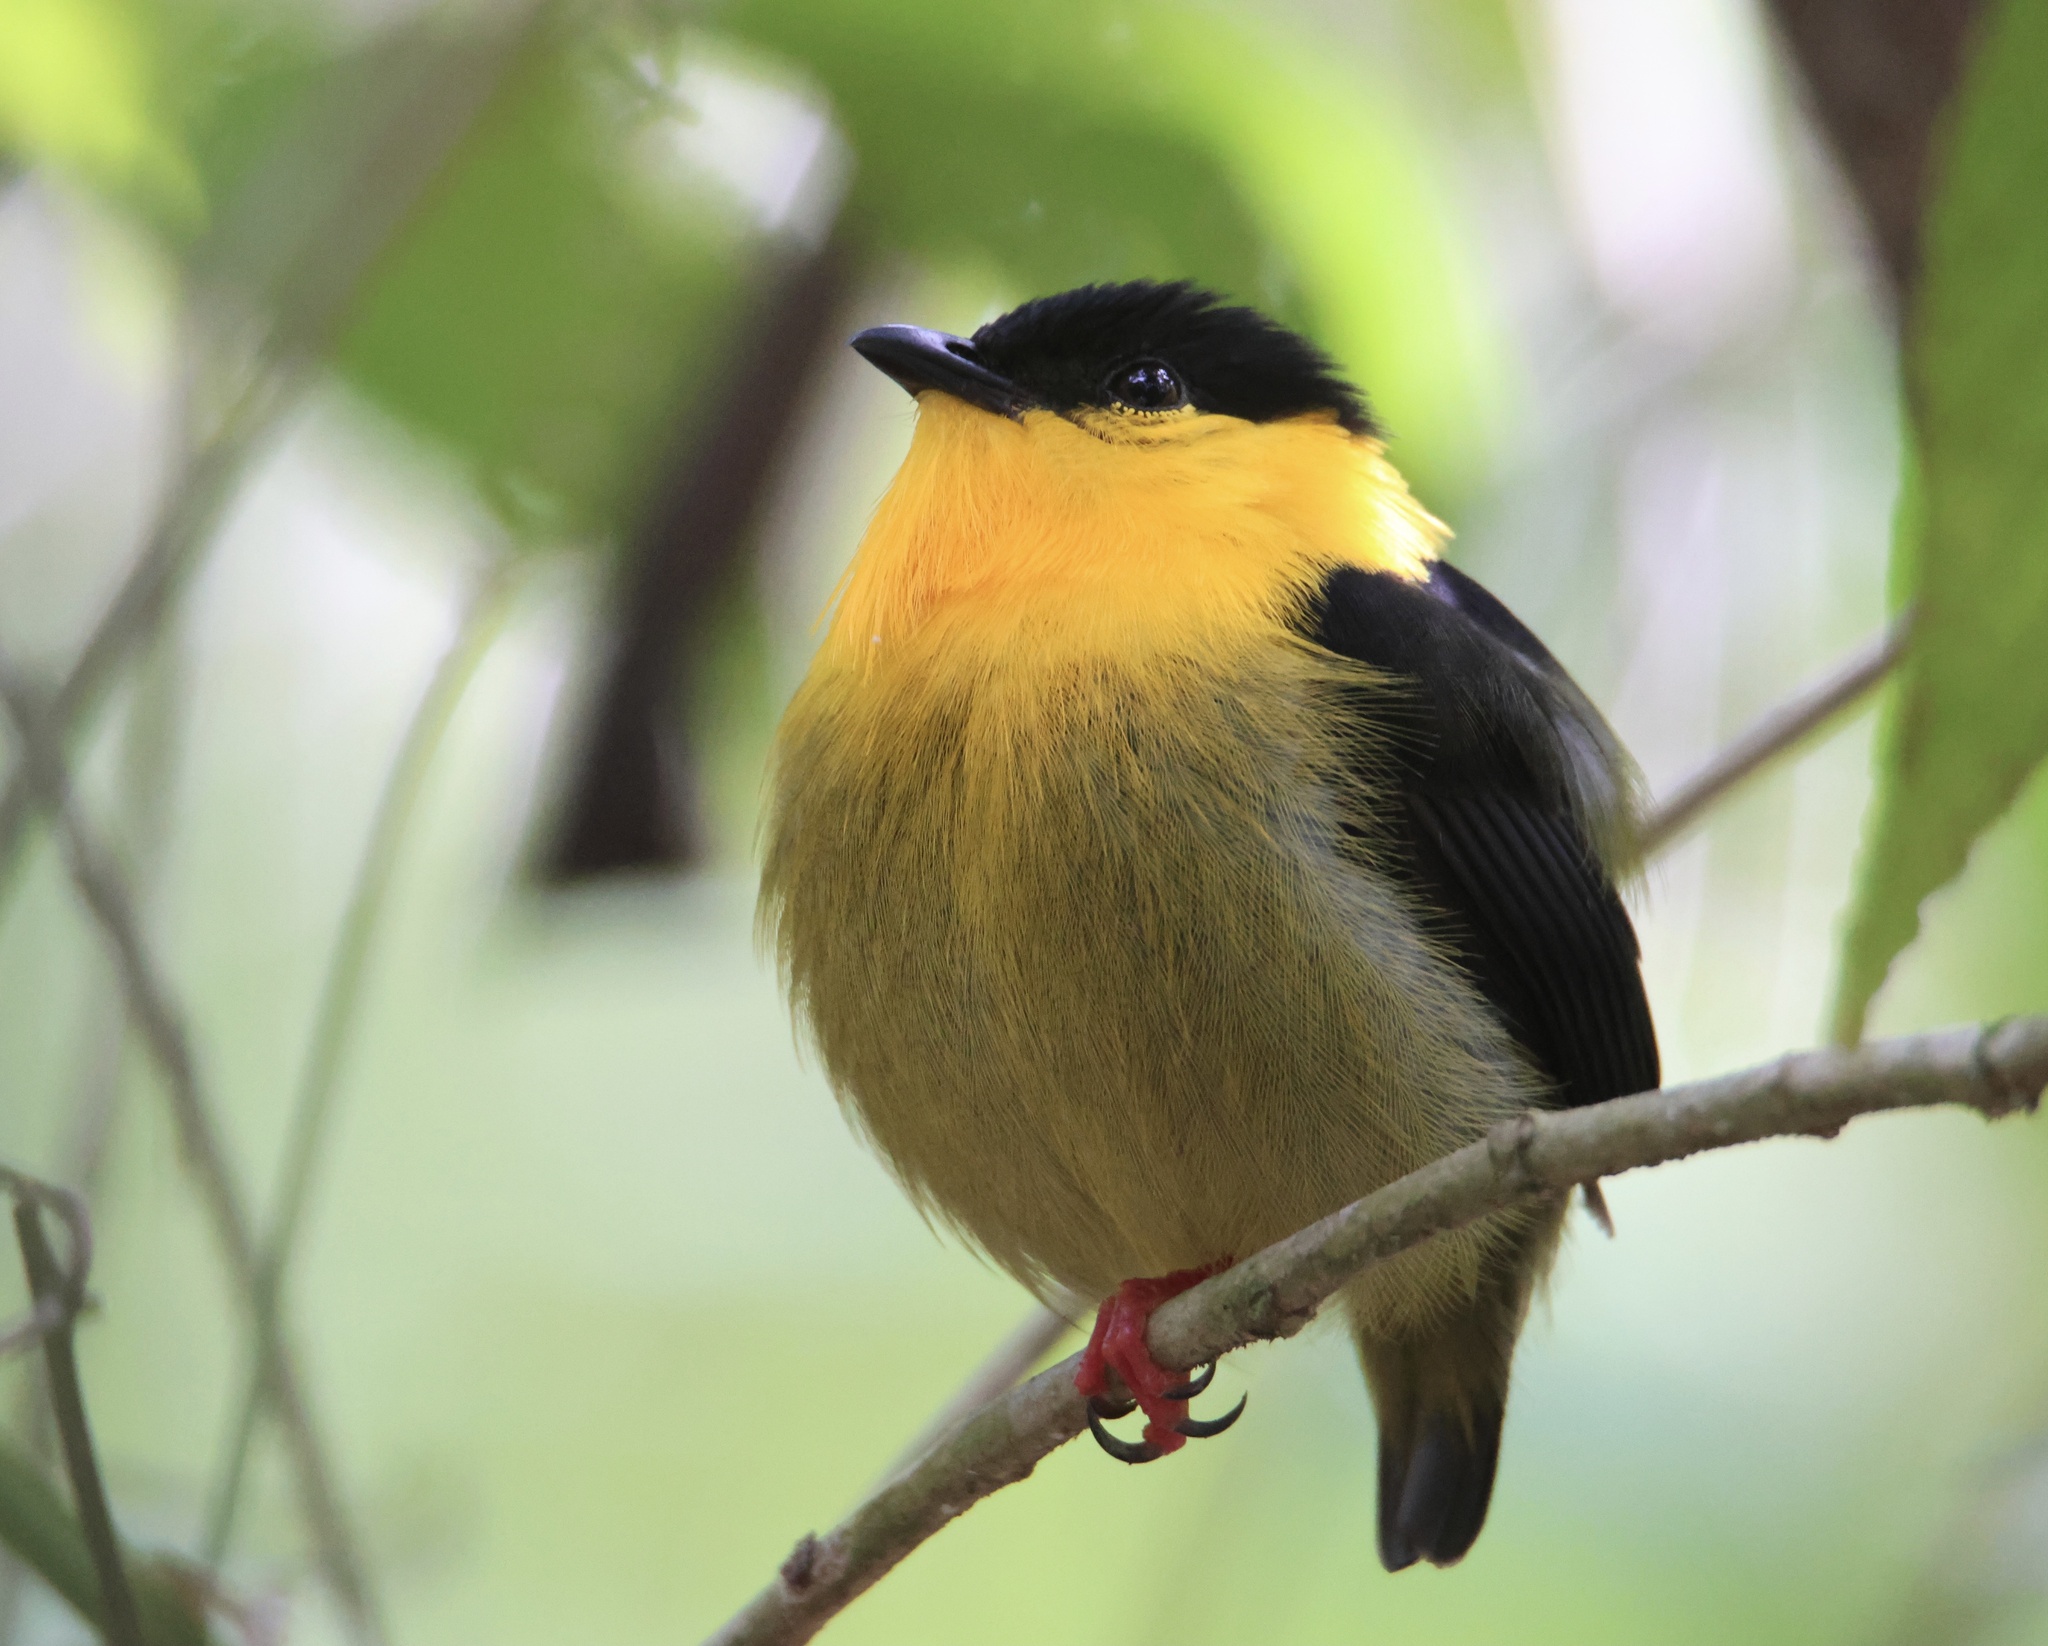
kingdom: Animalia
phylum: Chordata
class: Aves
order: Passeriformes
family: Pipridae
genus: Manacus
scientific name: Manacus vitellinus
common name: Golden-collared manakin
